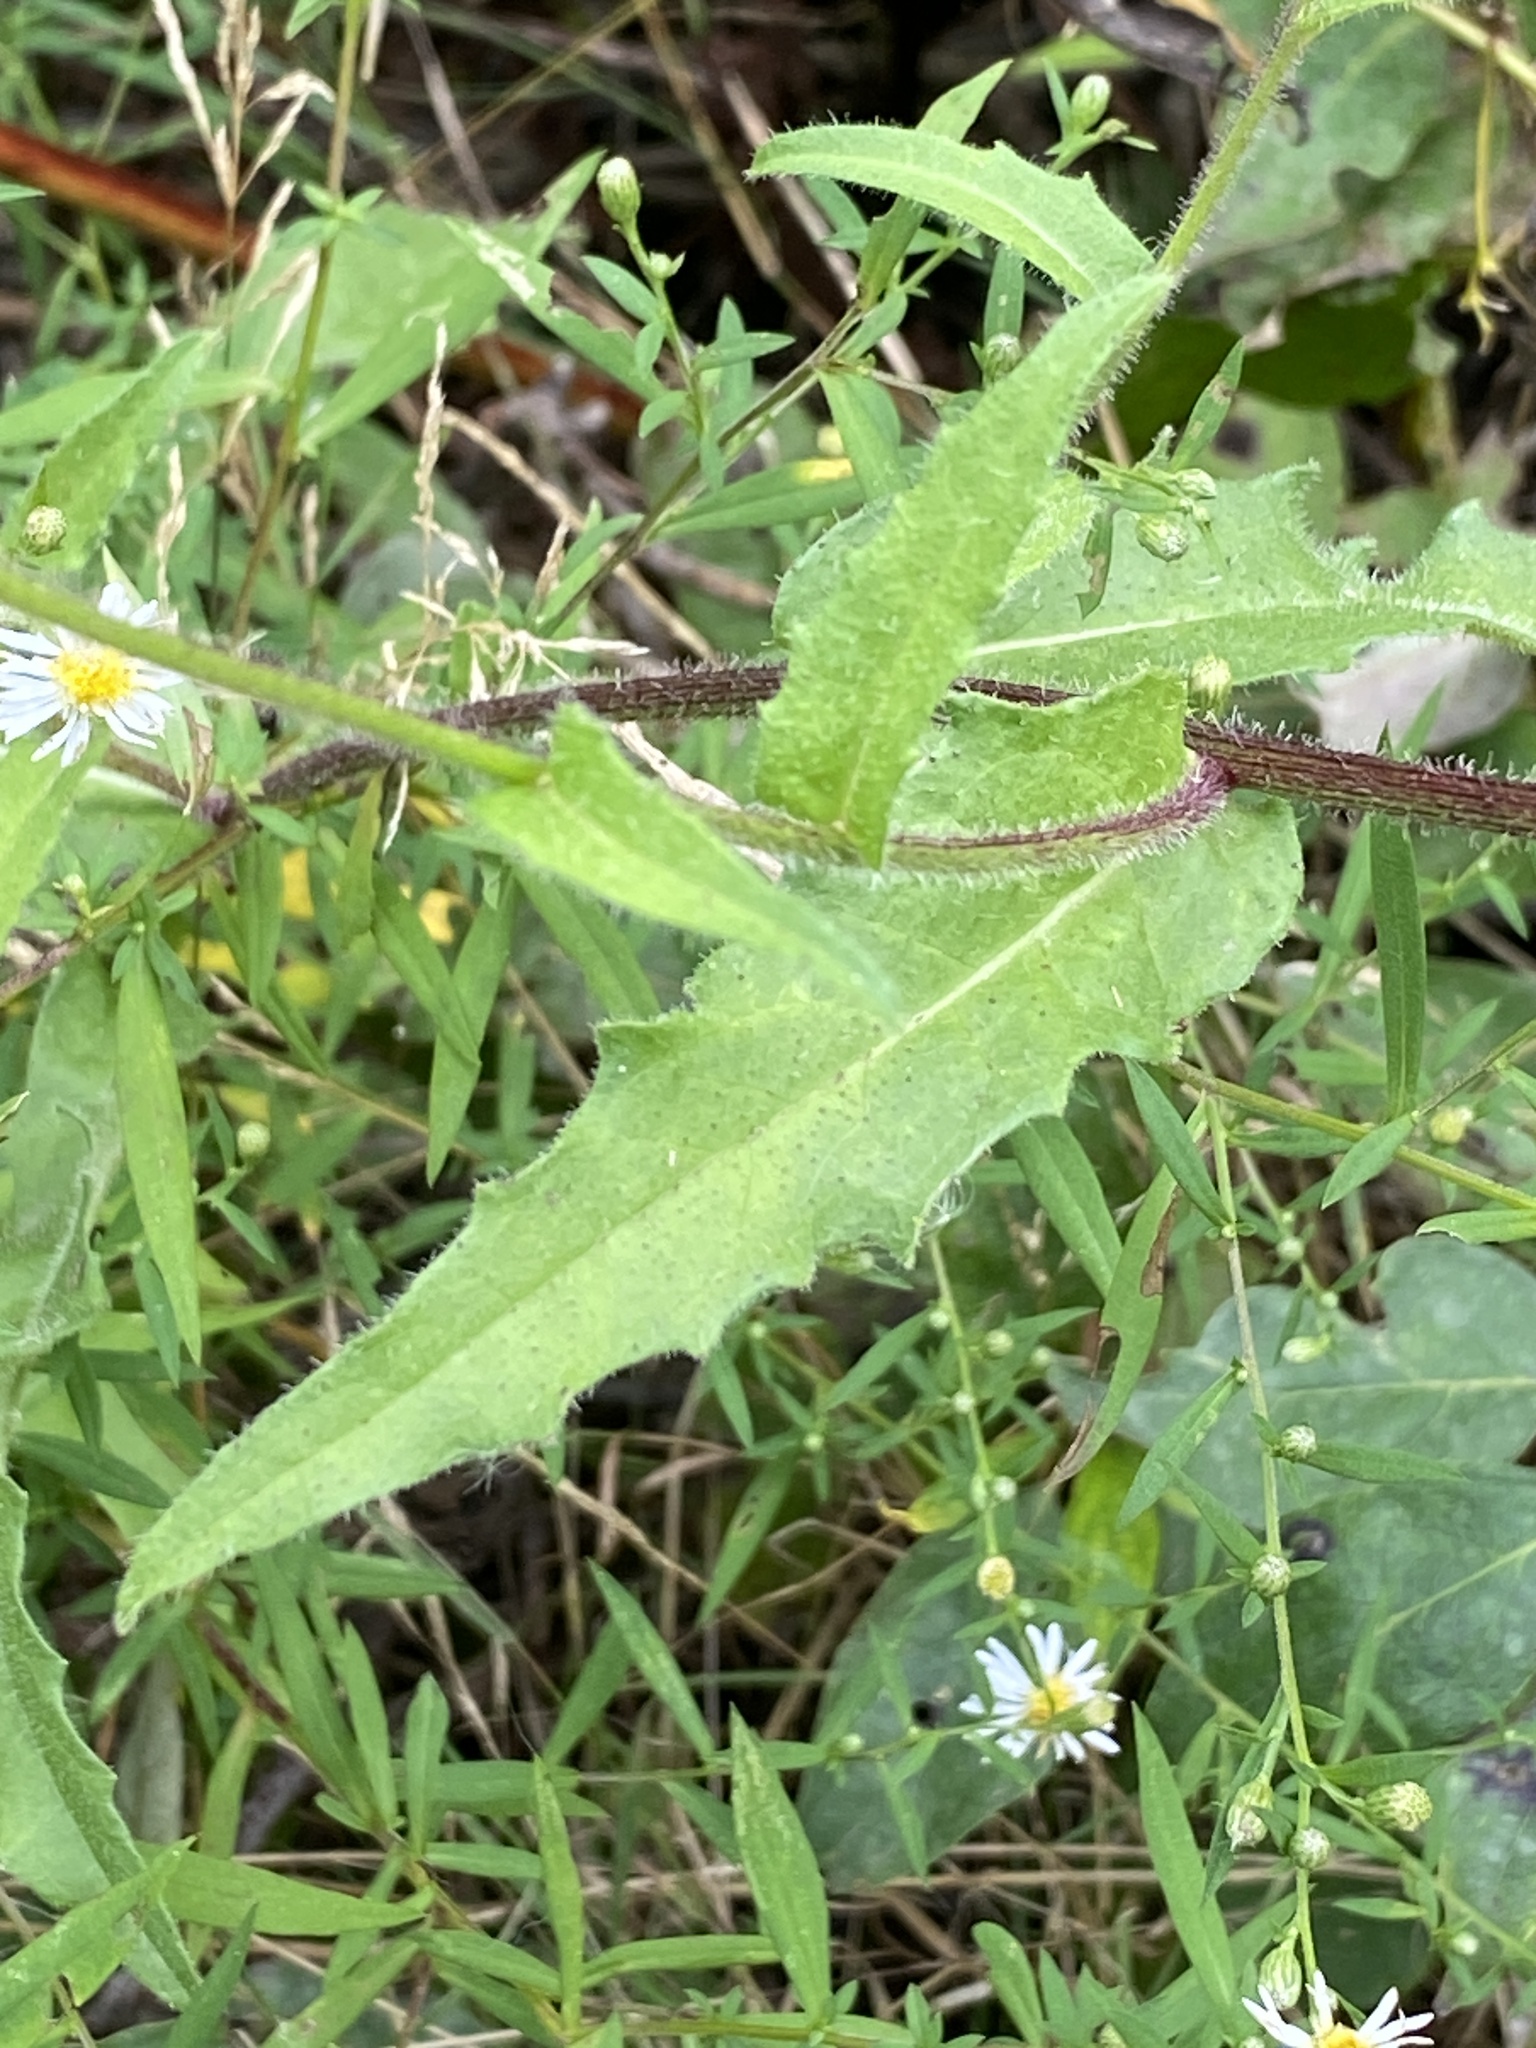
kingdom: Plantae
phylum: Tracheophyta
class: Magnoliopsida
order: Asterales
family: Asteraceae
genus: Picris
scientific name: Picris hieracioides
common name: Hawkweed oxtongue
